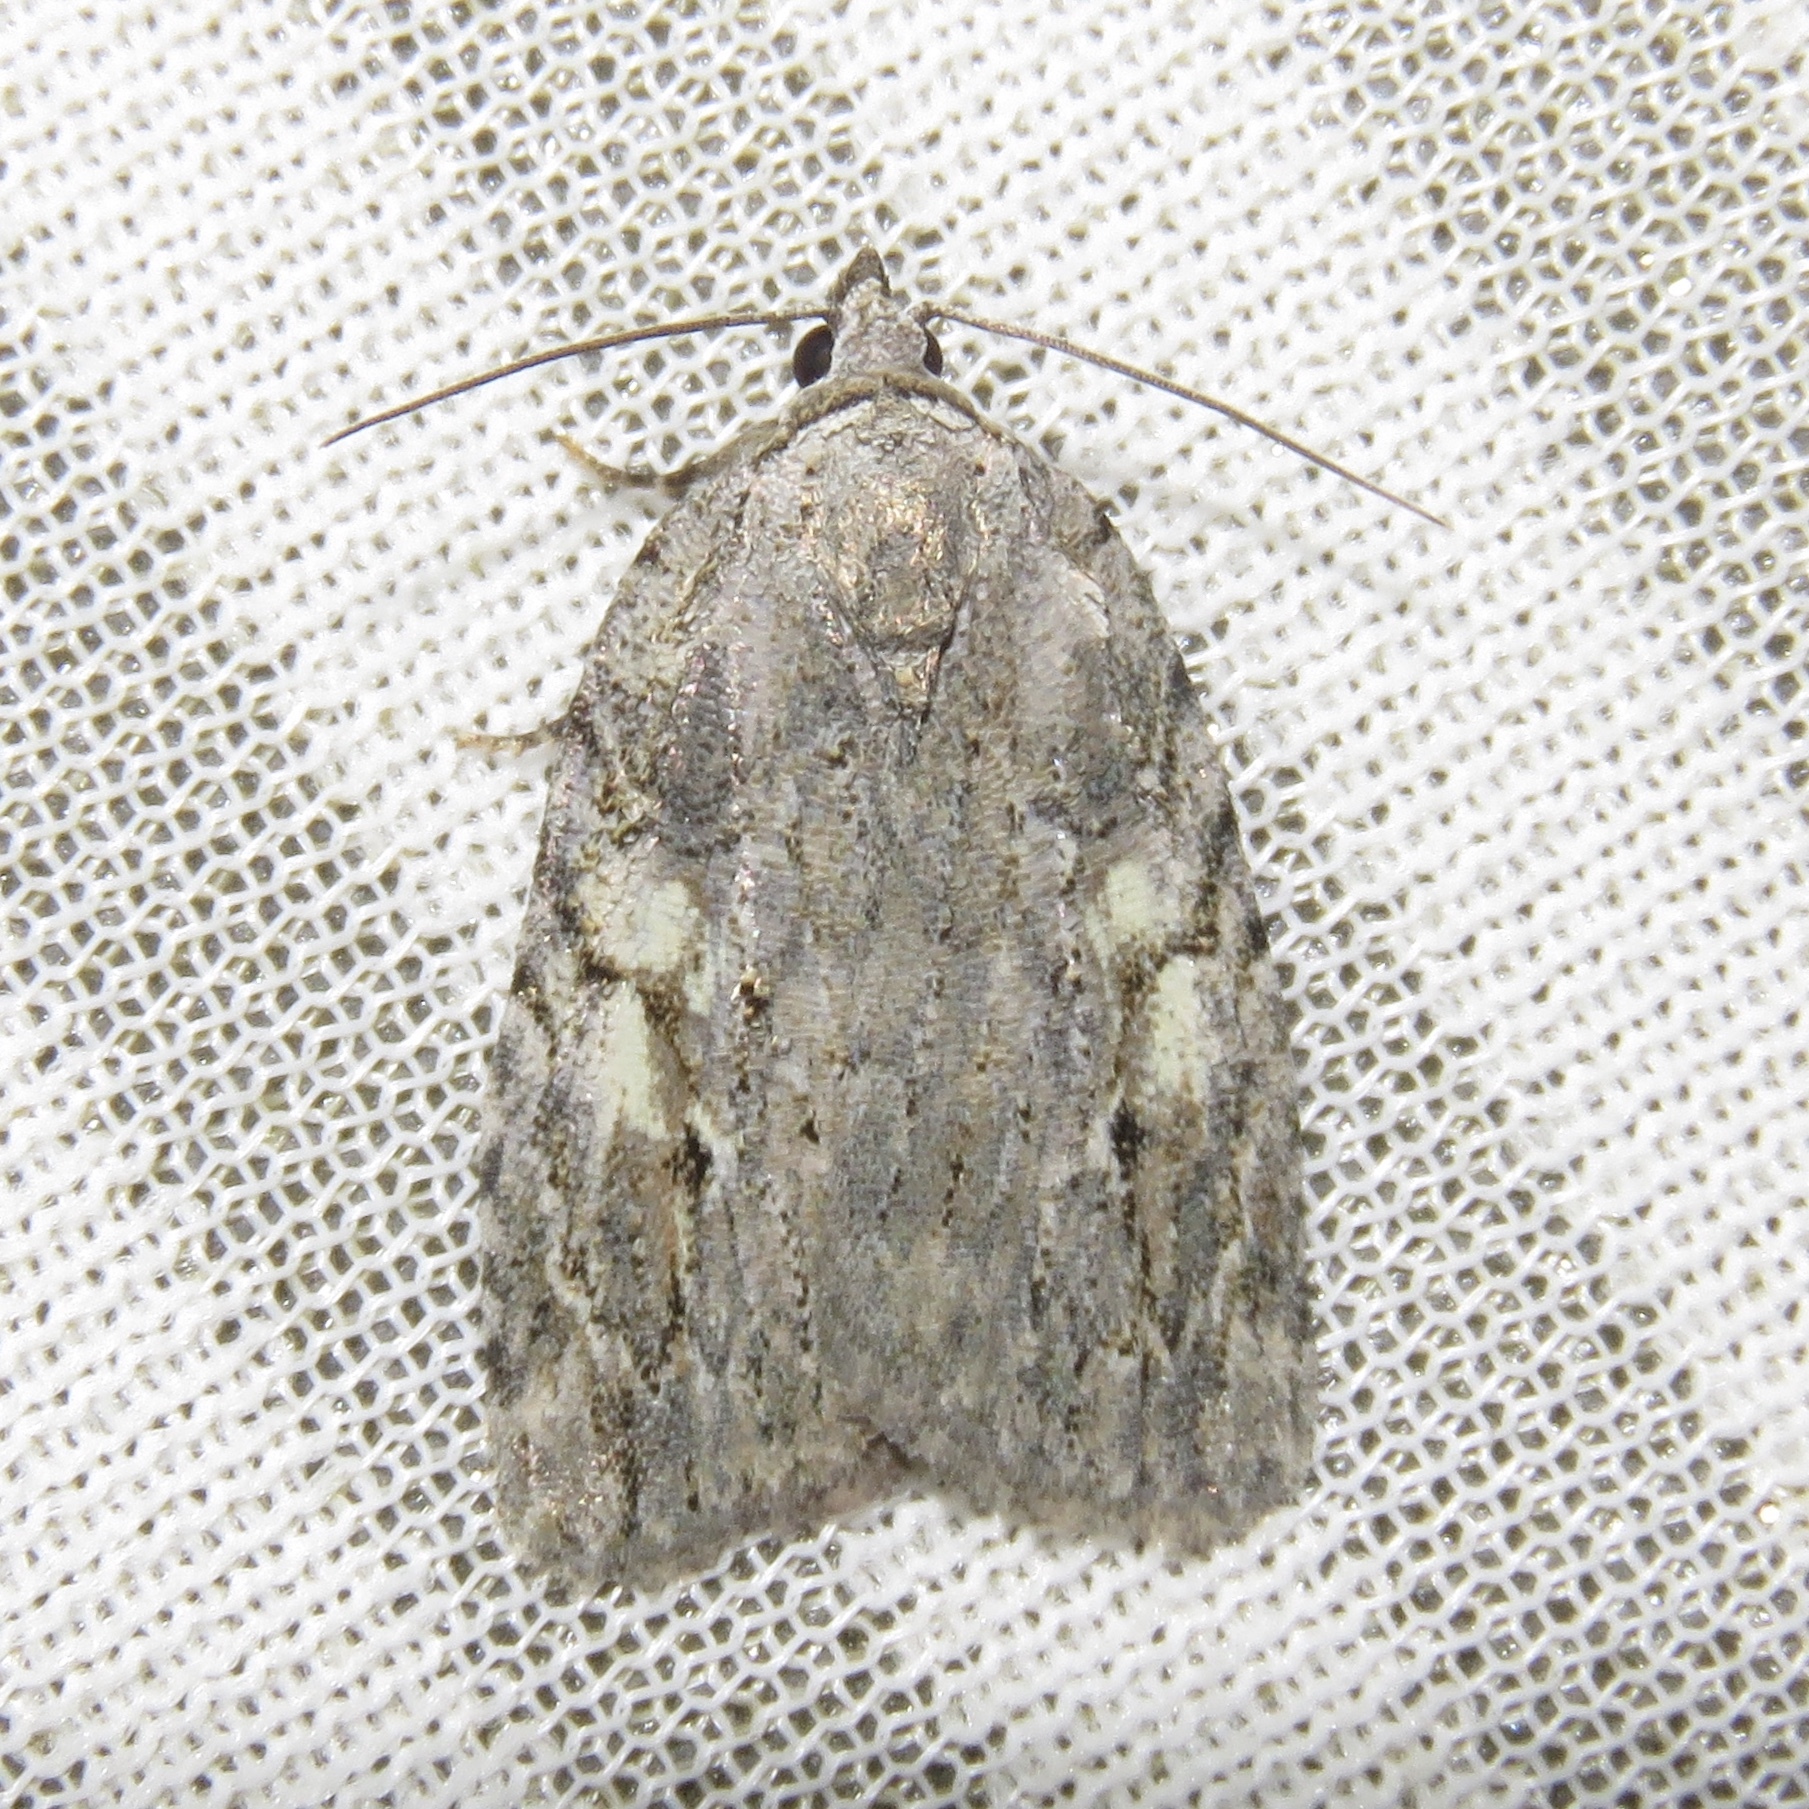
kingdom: Animalia
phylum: Arthropoda
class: Insecta
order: Lepidoptera
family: Noctuidae
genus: Balsa
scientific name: Balsa labecula
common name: White-blotched balsa moth
